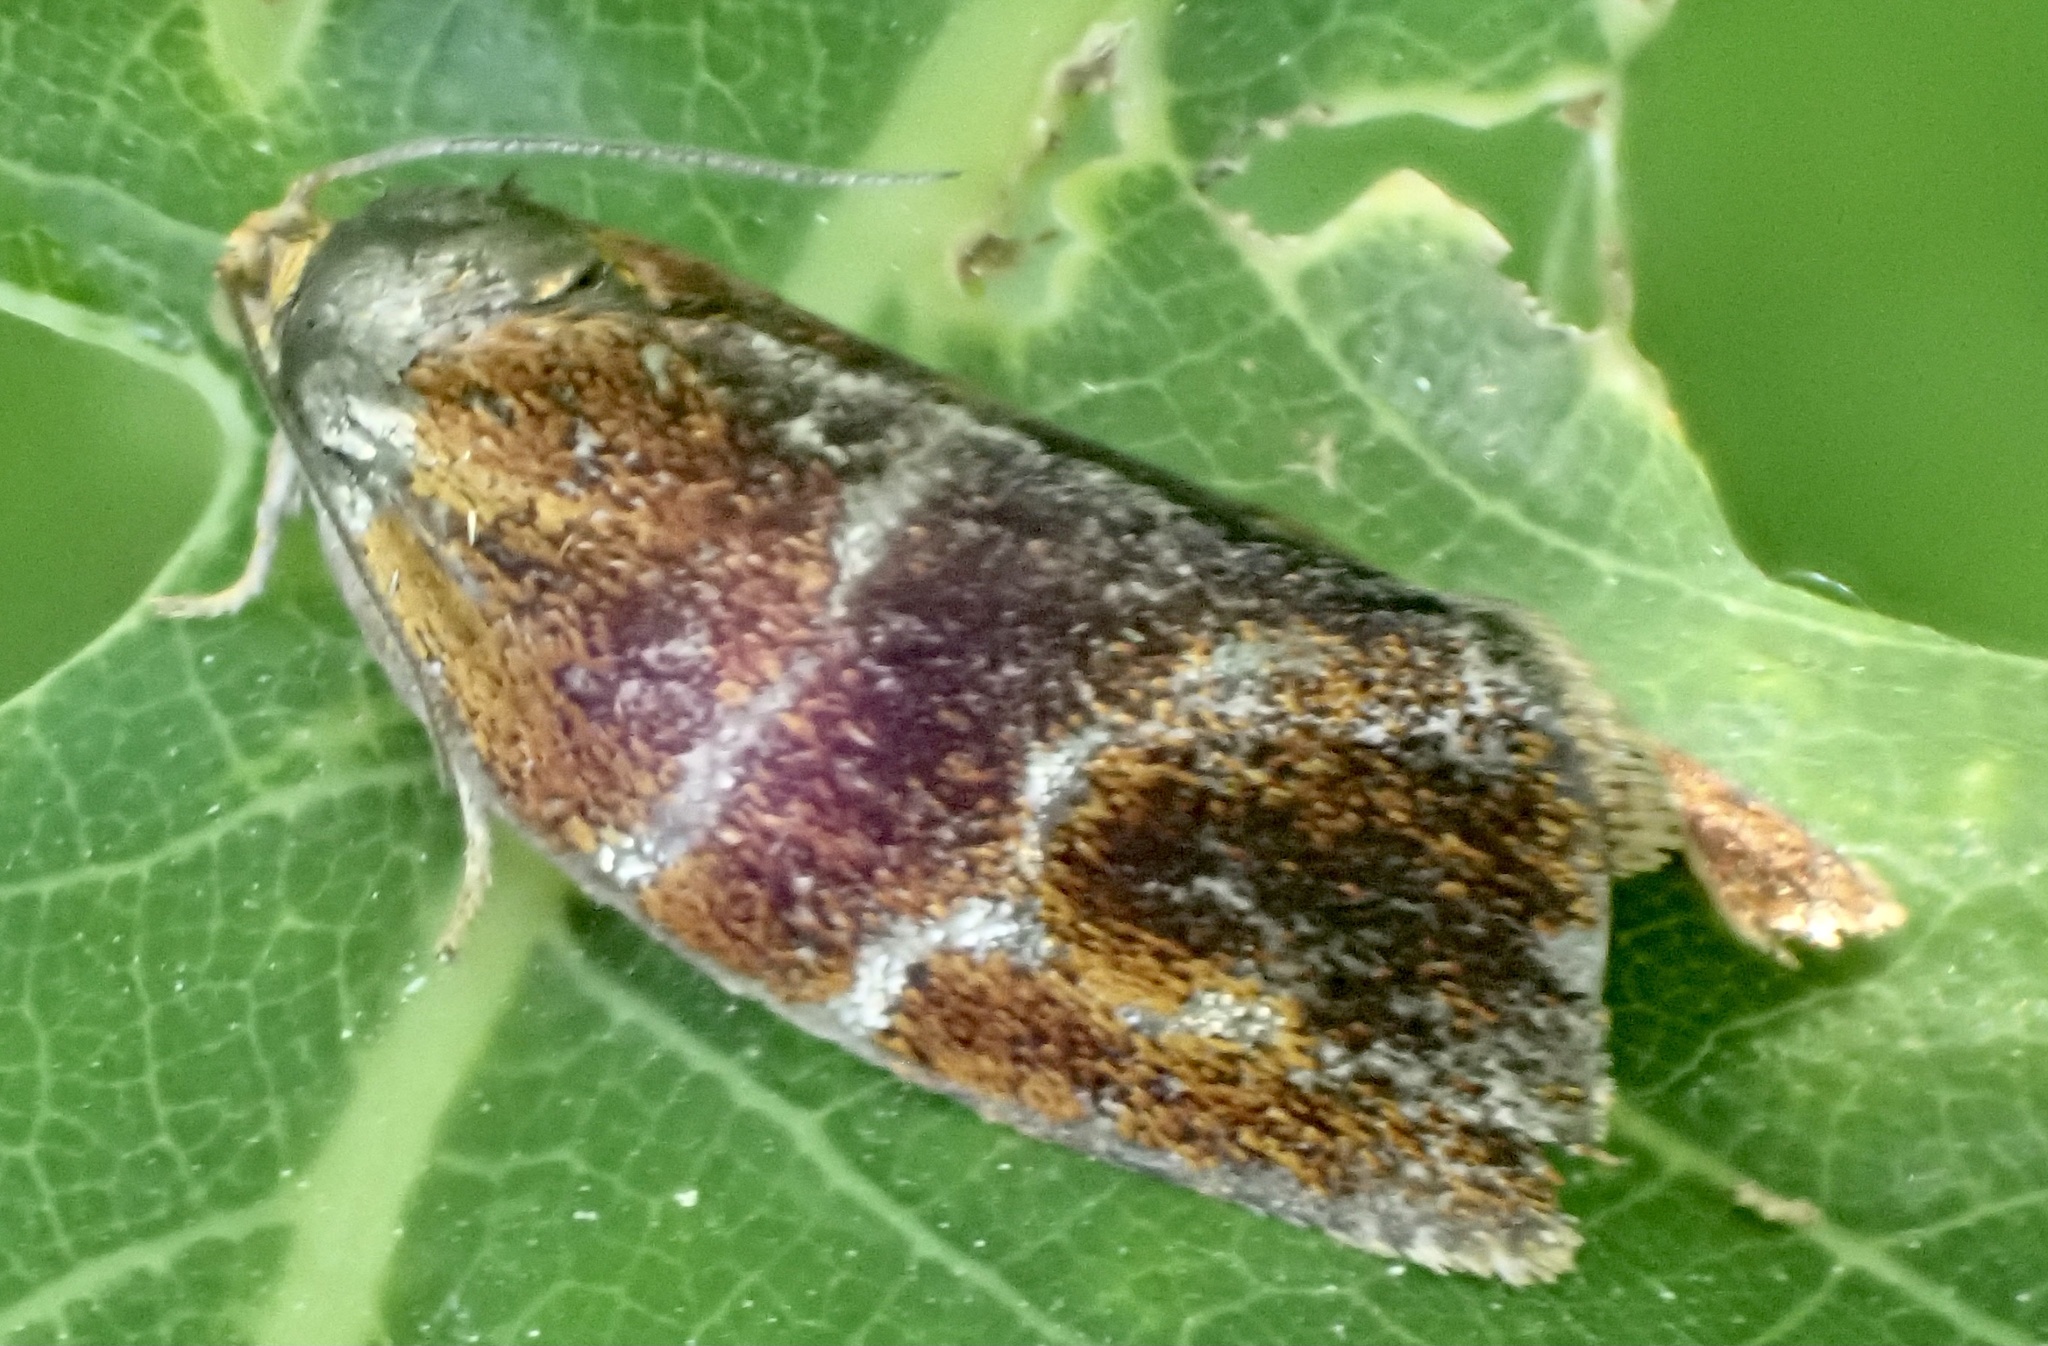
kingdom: Animalia
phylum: Arthropoda
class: Insecta
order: Lepidoptera
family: Tortricidae
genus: Ptycholoma
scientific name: Ptycholoma lecheana
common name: Leches twist moth
